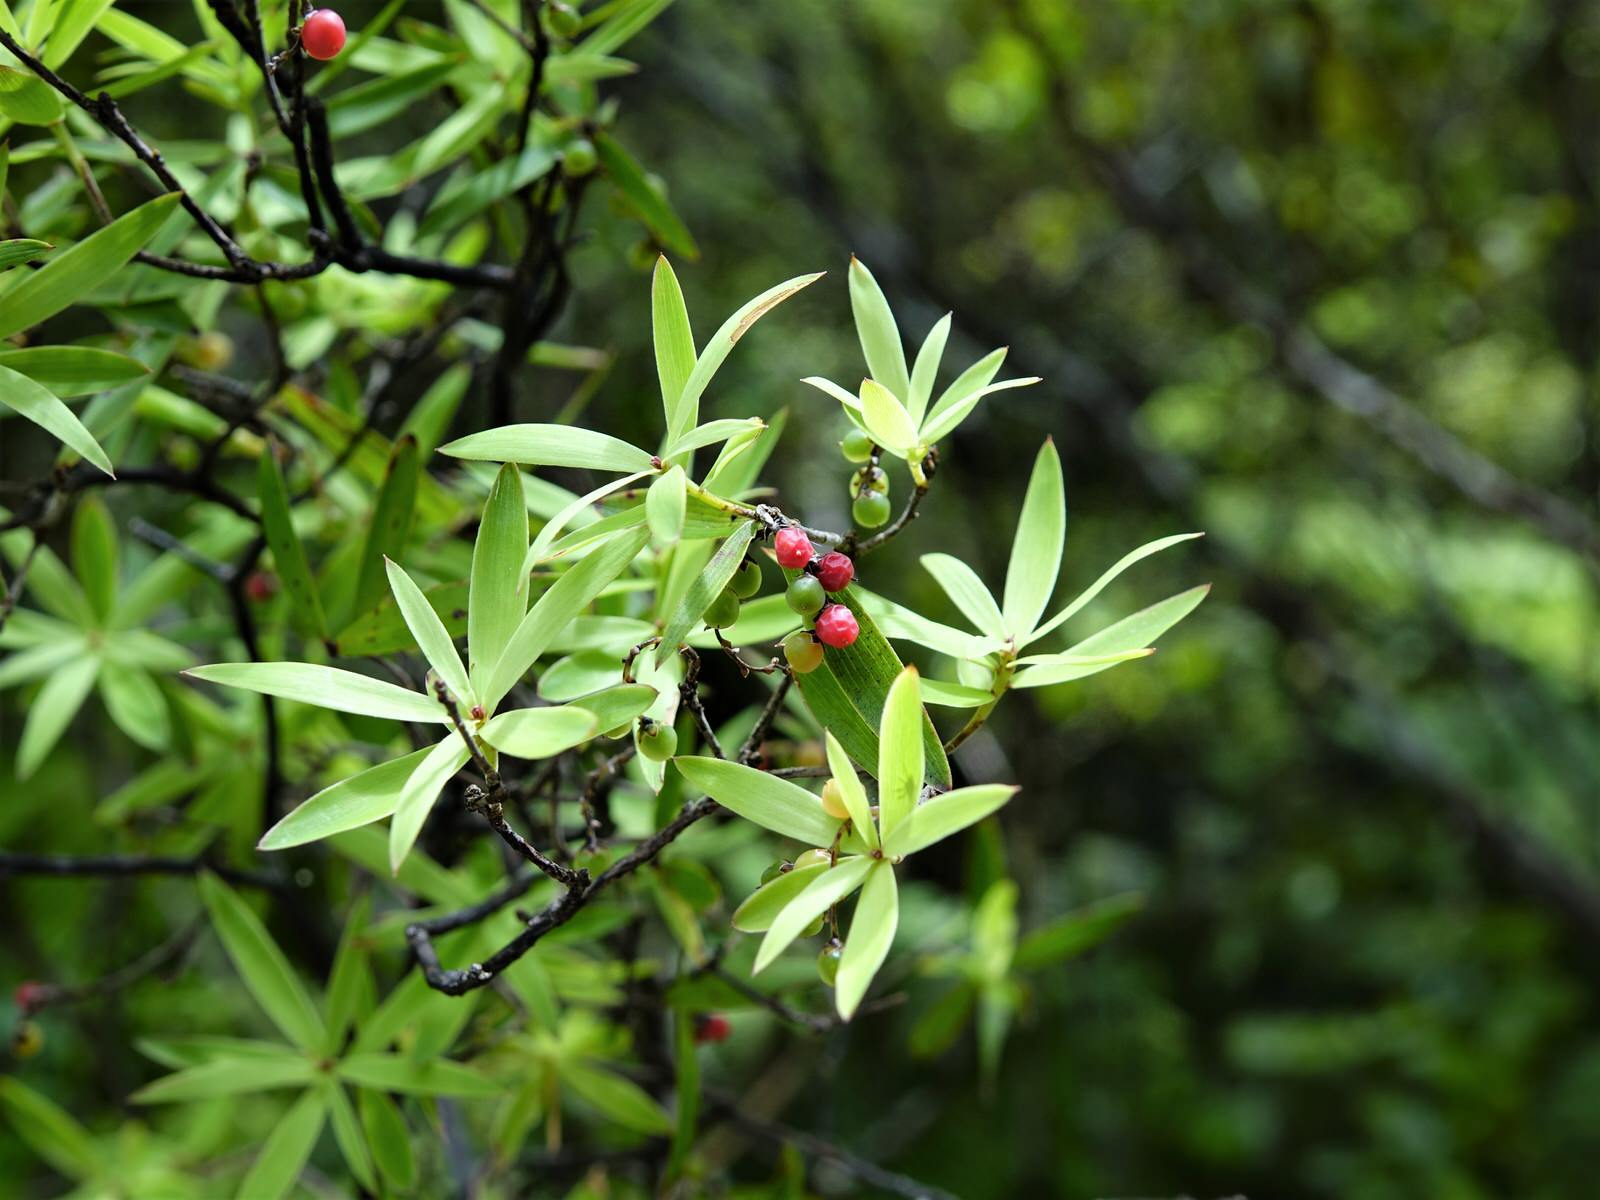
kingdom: Plantae
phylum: Tracheophyta
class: Magnoliopsida
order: Ericales
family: Ericaceae
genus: Leucopogon
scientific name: Leucopogon fasciculatus
